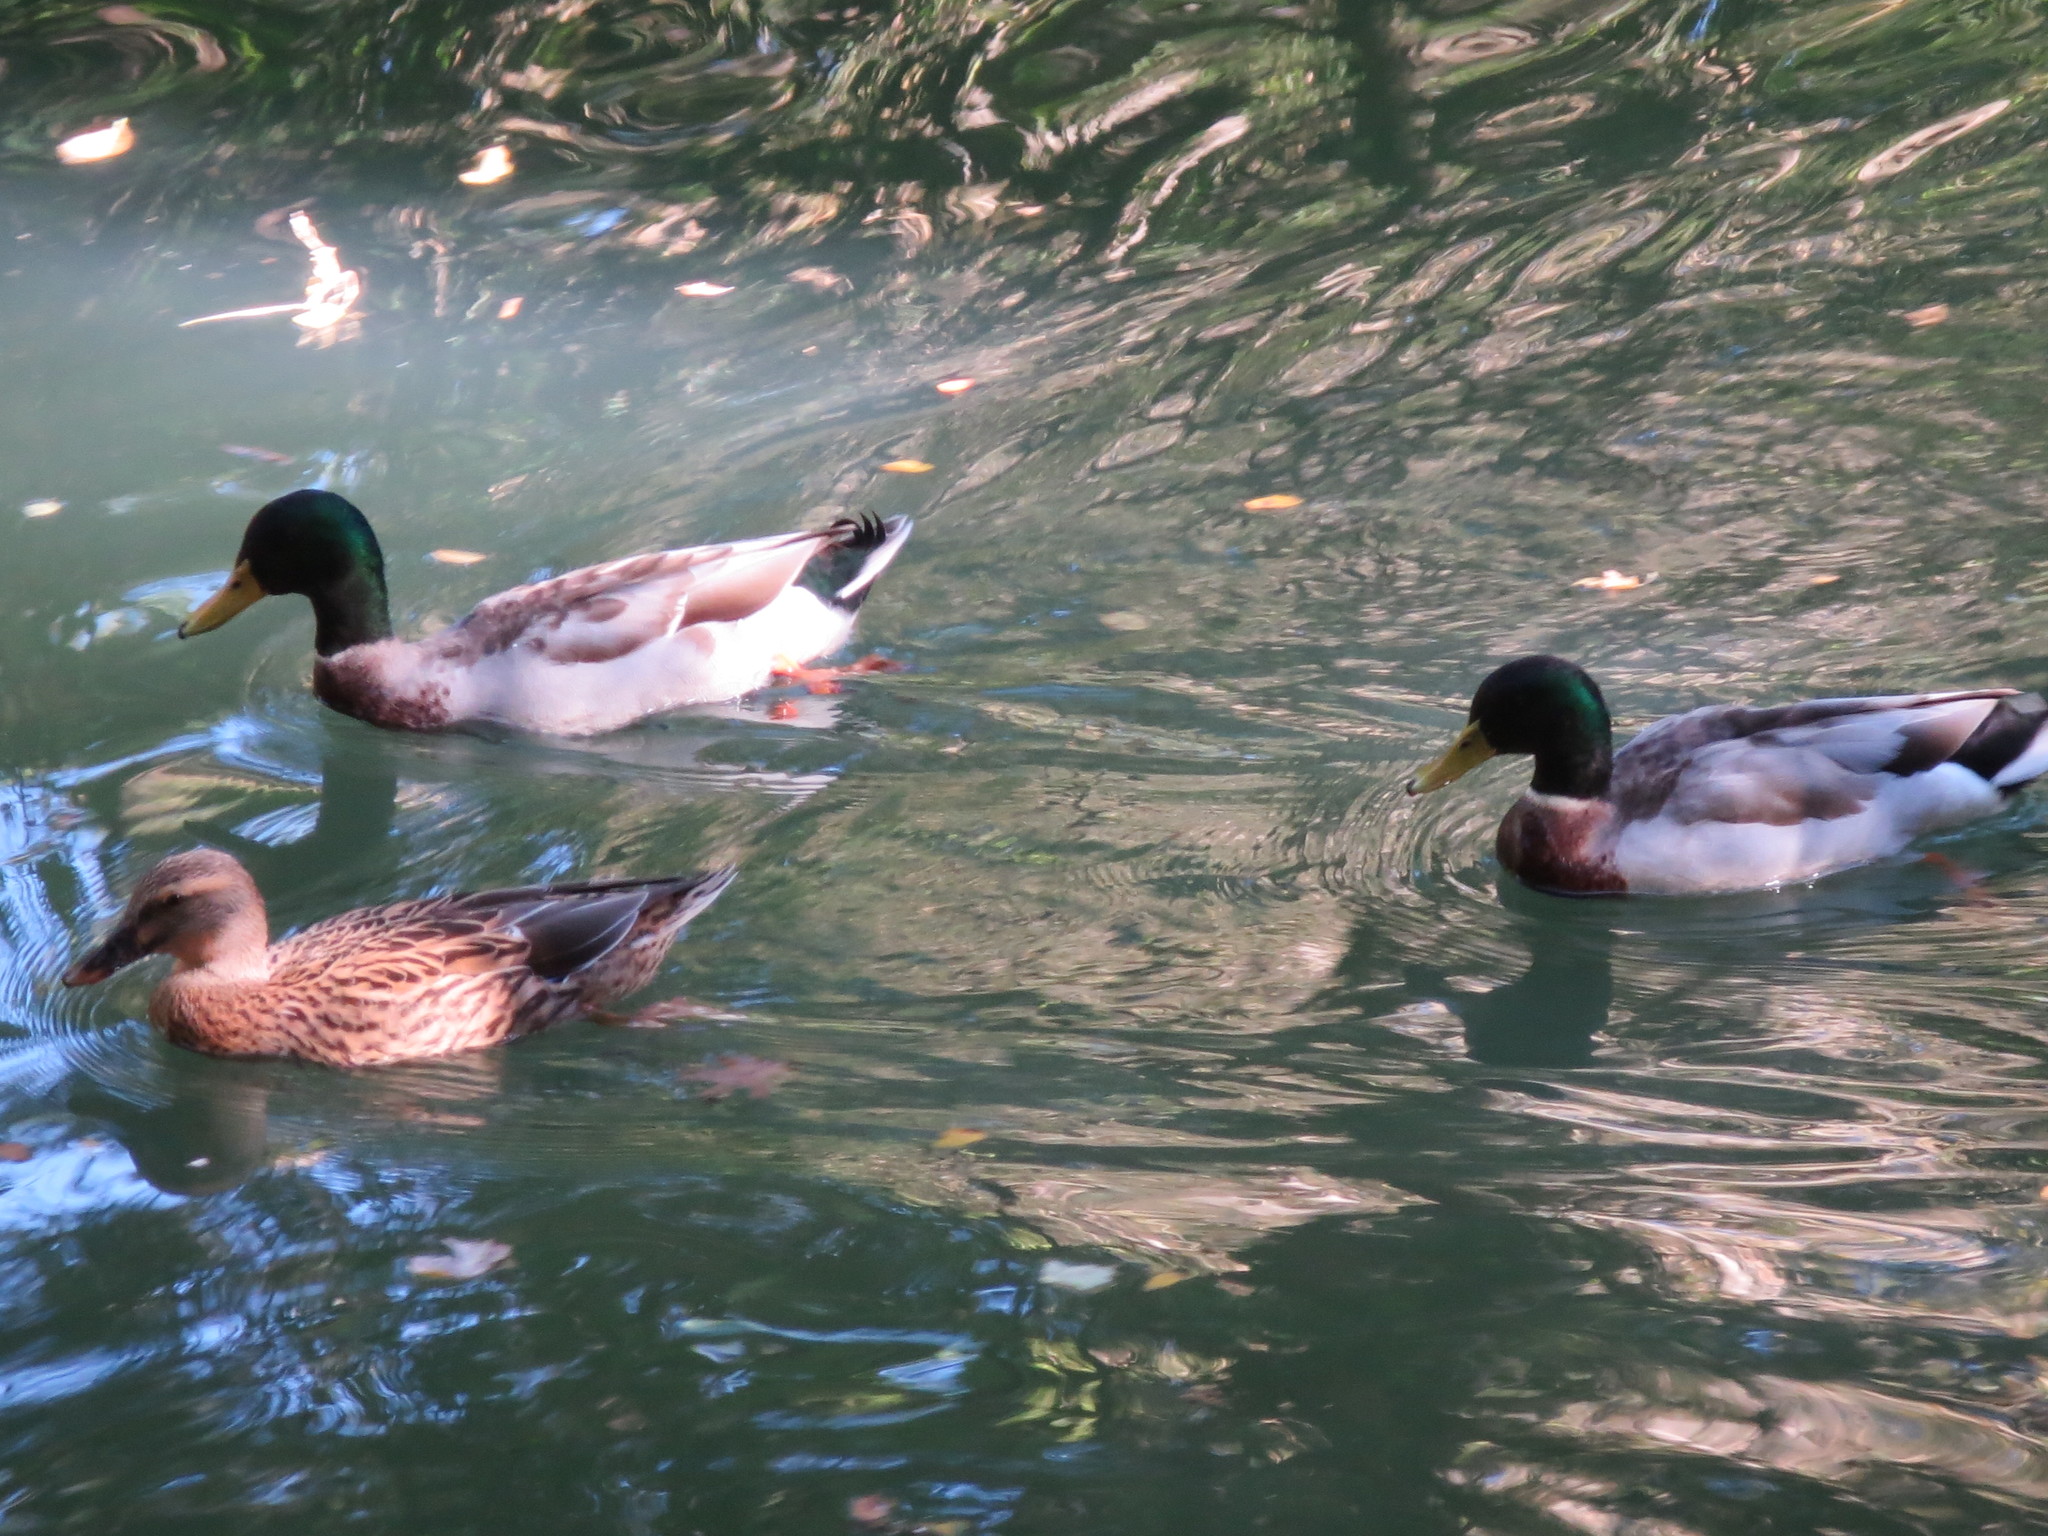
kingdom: Animalia
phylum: Chordata
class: Aves
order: Anseriformes
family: Anatidae
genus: Anas
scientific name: Anas platyrhynchos
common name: Mallard
